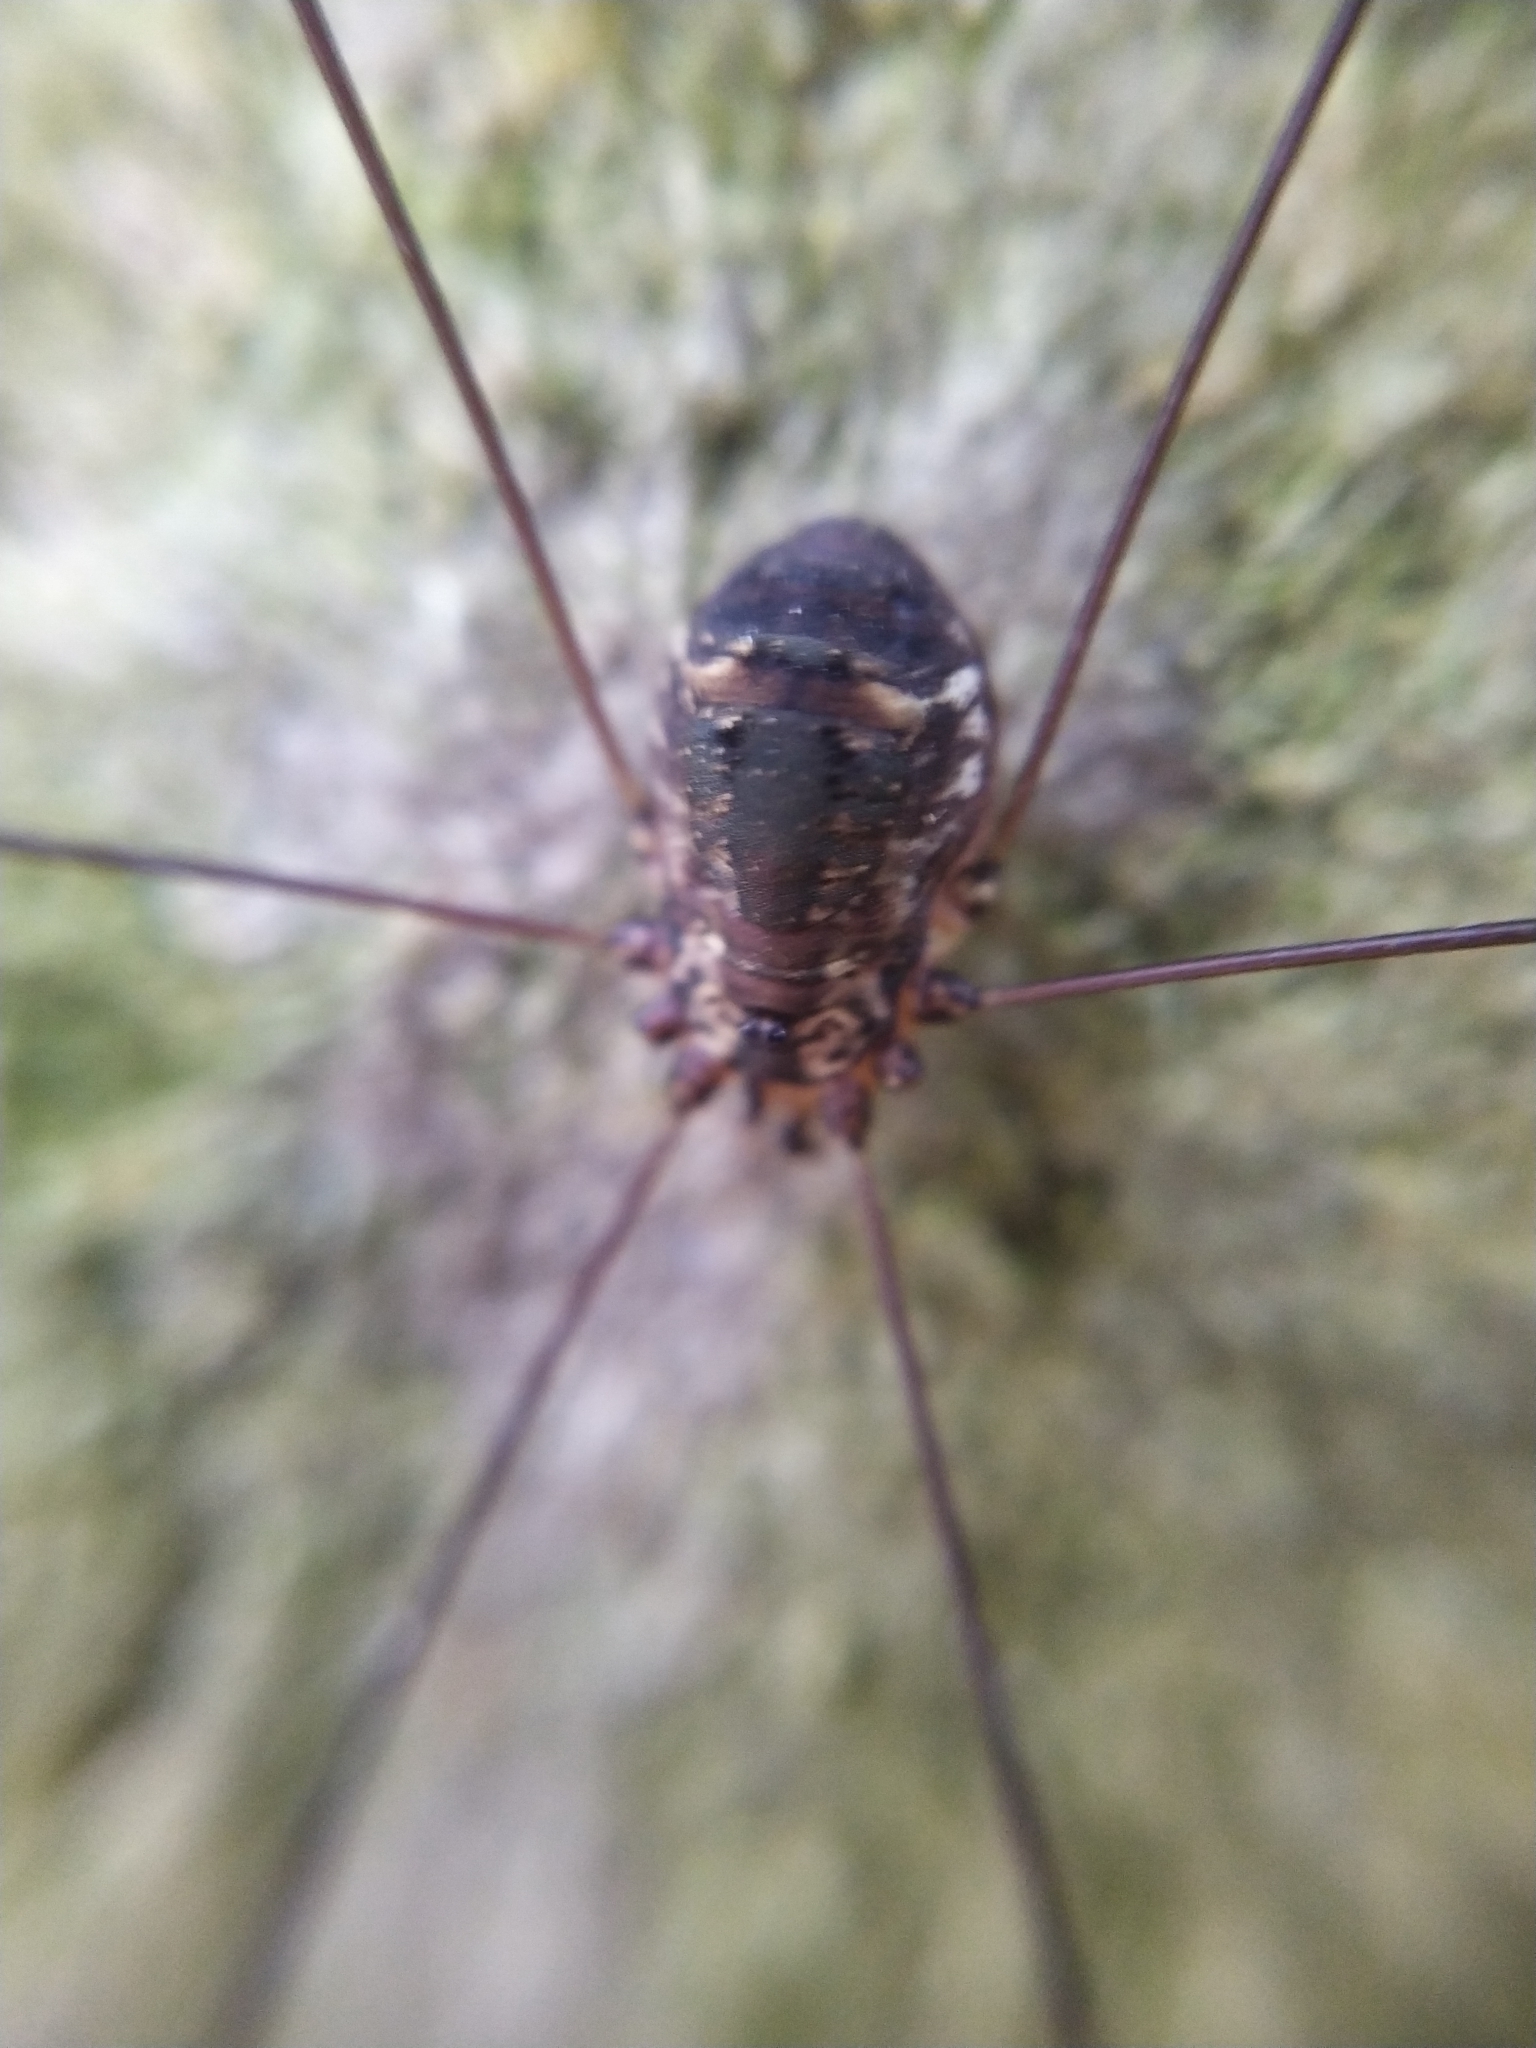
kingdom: Animalia
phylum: Arthropoda
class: Arachnida
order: Opiliones
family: Sclerosomatidae
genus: Leiobunum
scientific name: Leiobunum
